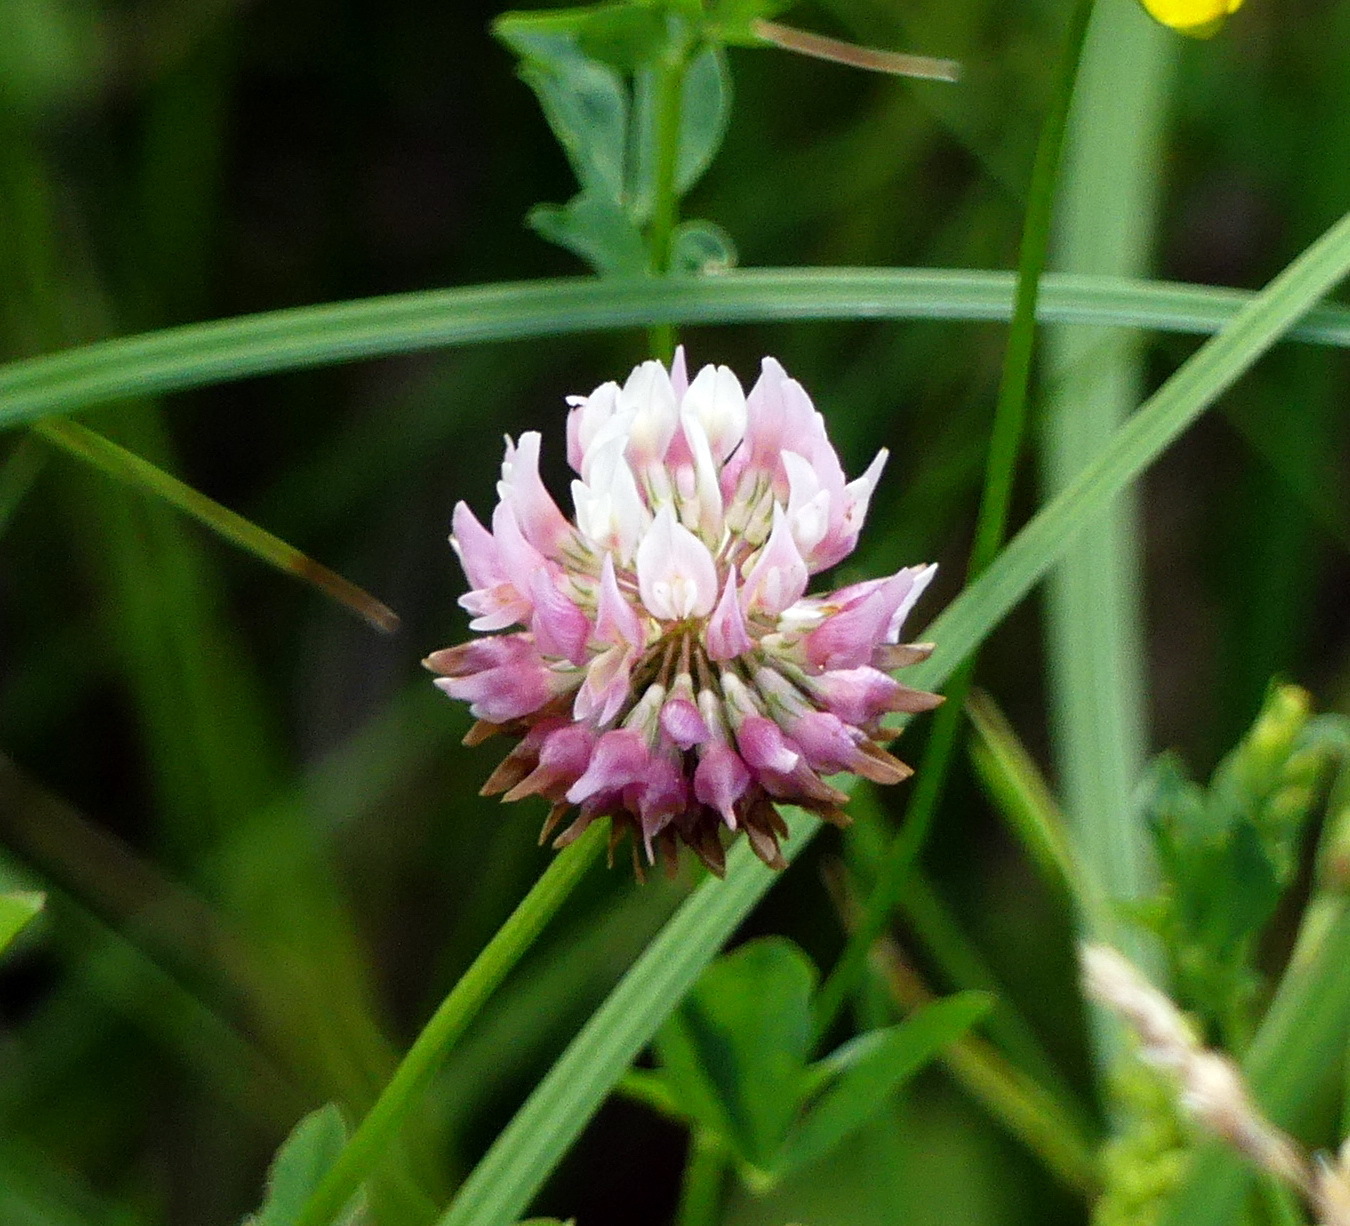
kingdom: Plantae
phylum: Tracheophyta
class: Magnoliopsida
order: Fabales
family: Fabaceae
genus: Trifolium
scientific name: Trifolium hybridum
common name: Alsike clover
